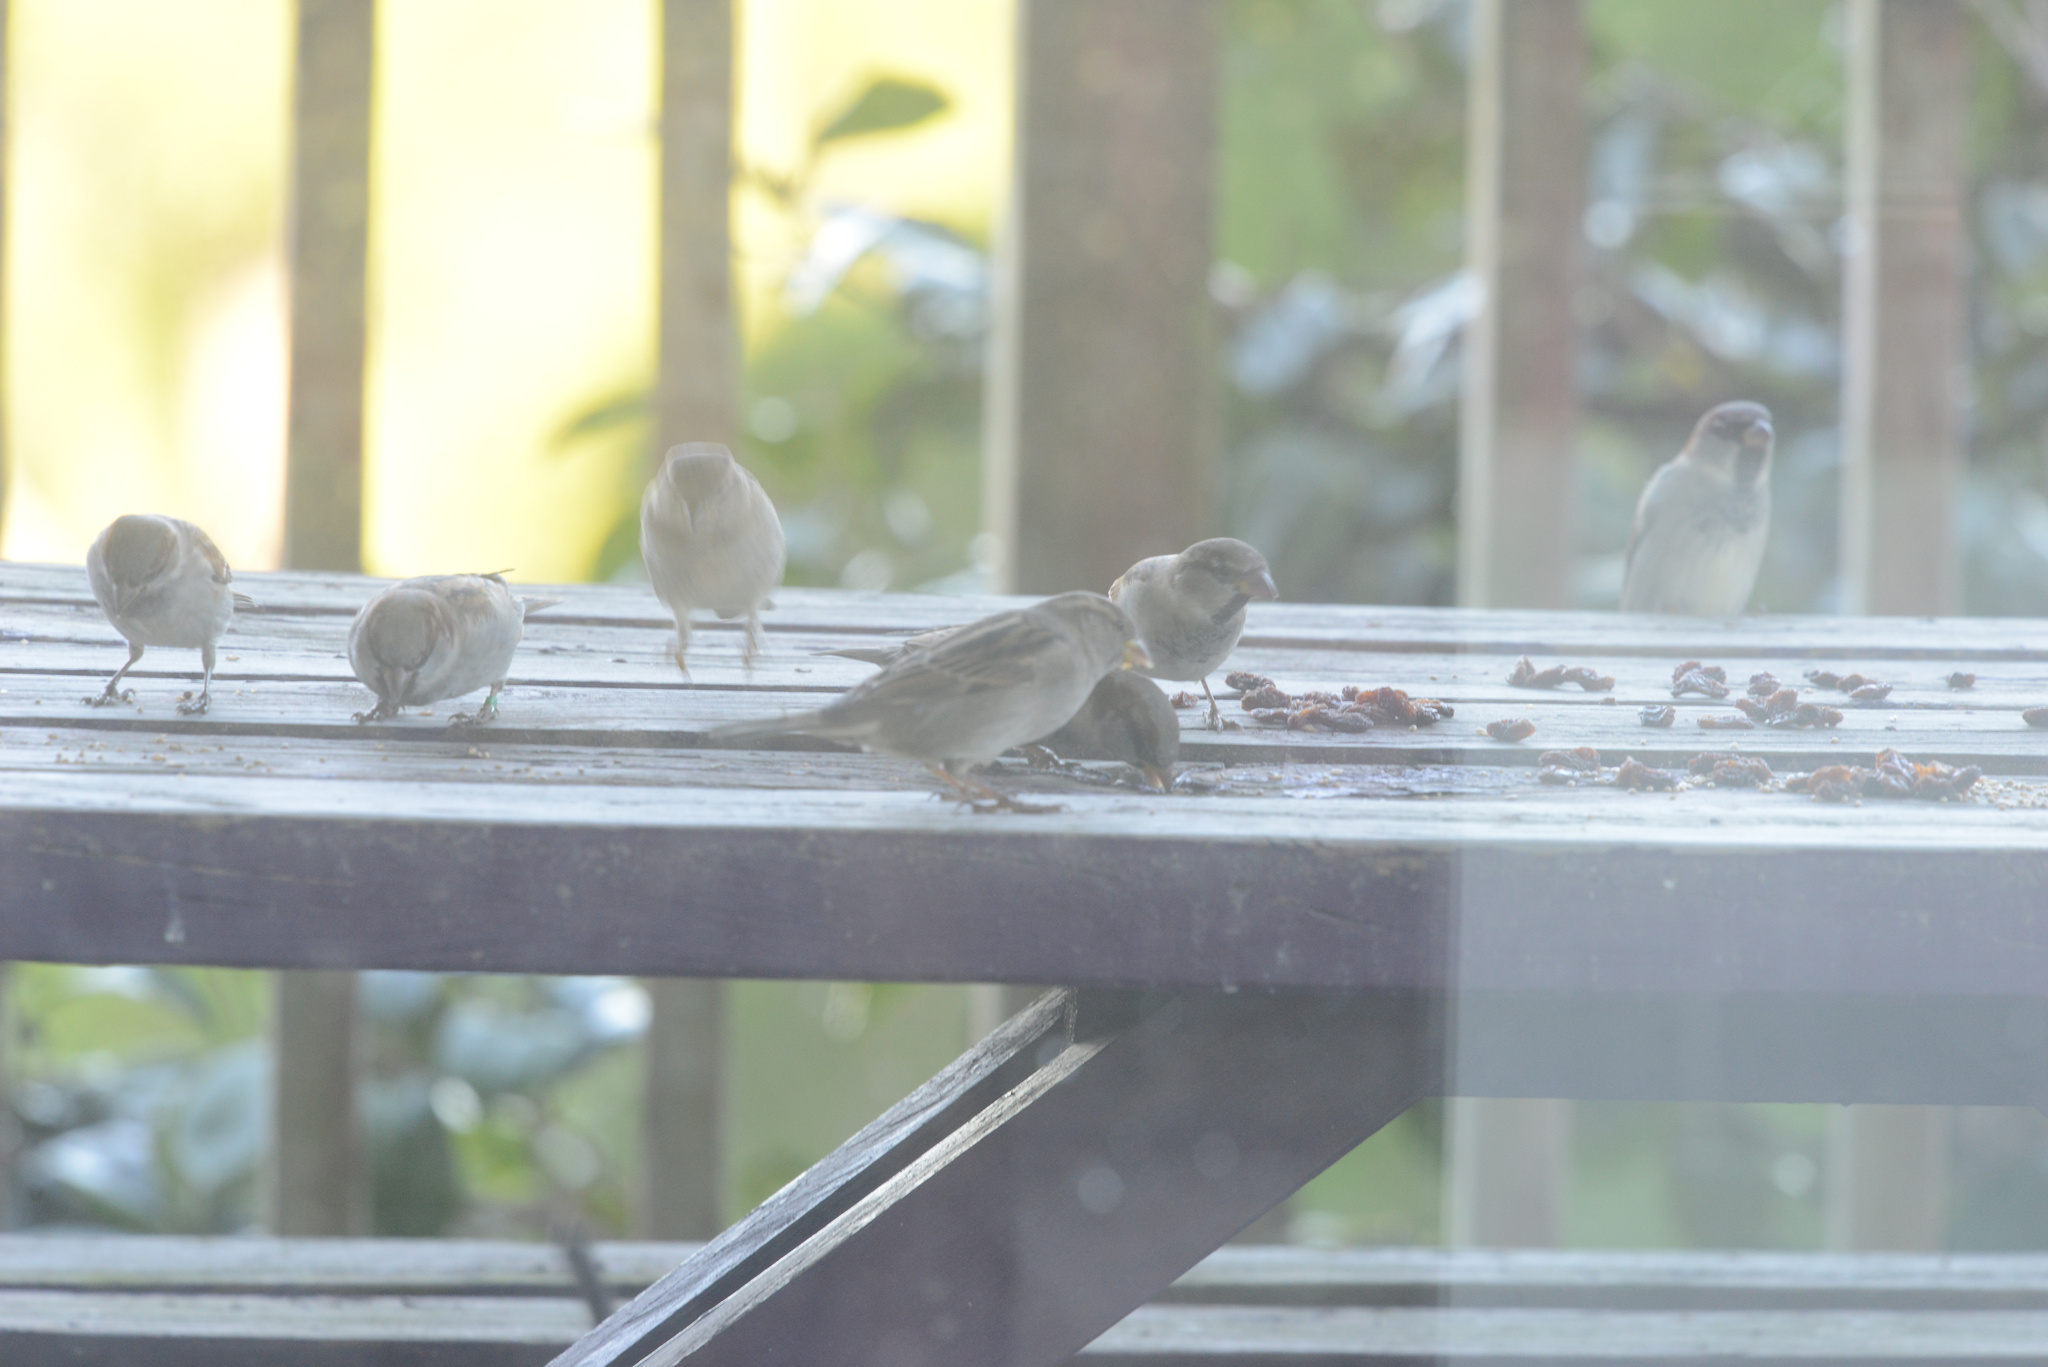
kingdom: Animalia
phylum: Chordata
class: Aves
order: Passeriformes
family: Passeridae
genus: Passer
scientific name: Passer domesticus
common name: House sparrow
